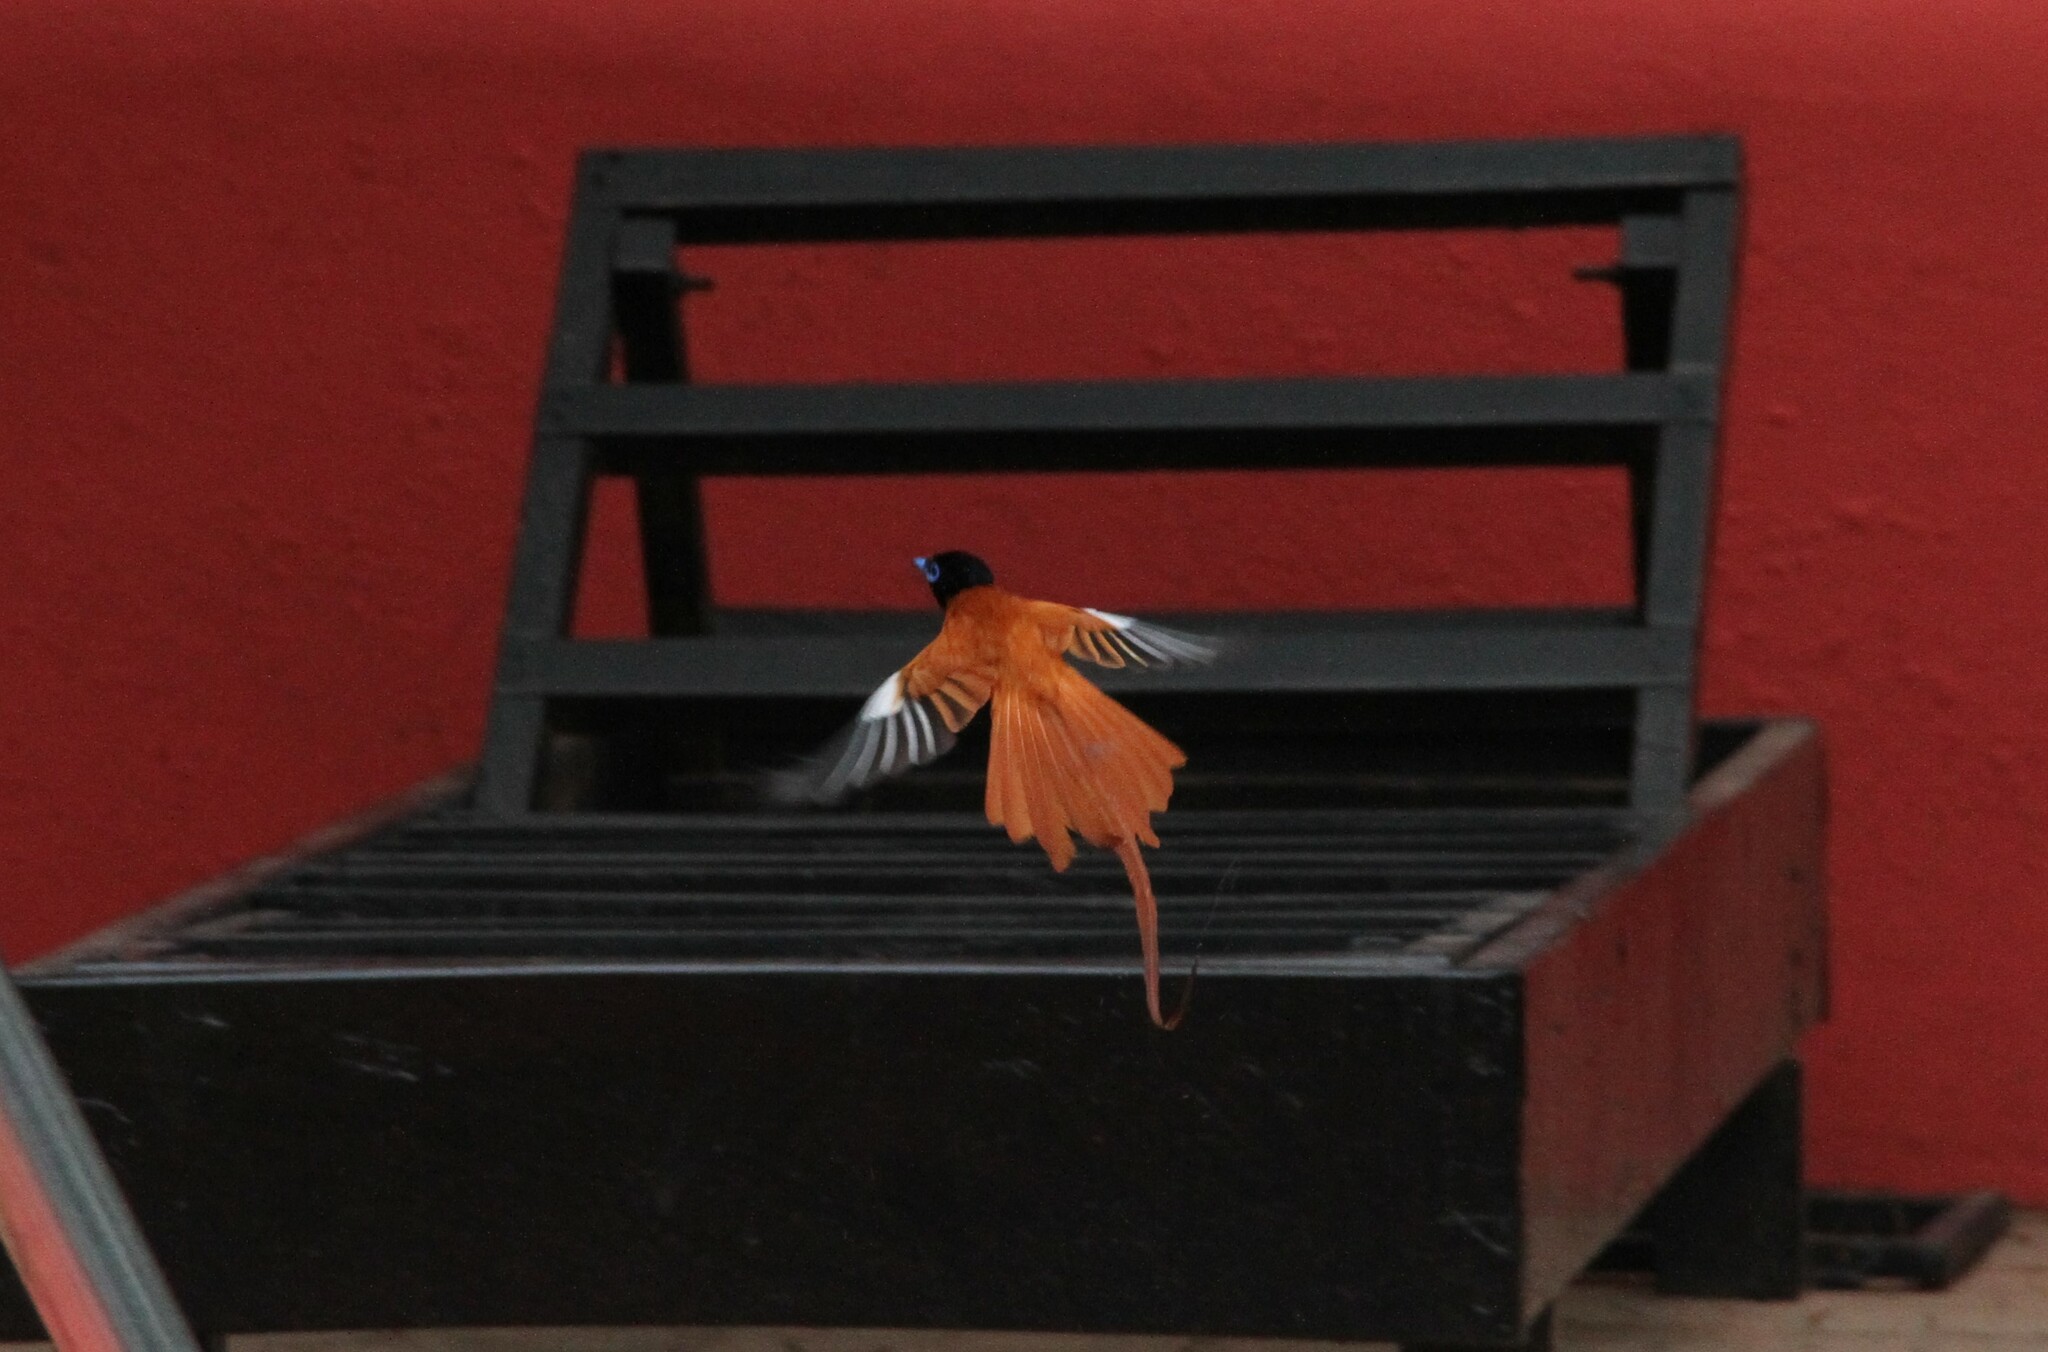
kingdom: Animalia
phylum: Chordata
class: Aves
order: Passeriformes
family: Monarchidae
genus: Terpsiphone
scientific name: Terpsiphone viridis
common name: African paradise flycatcher
